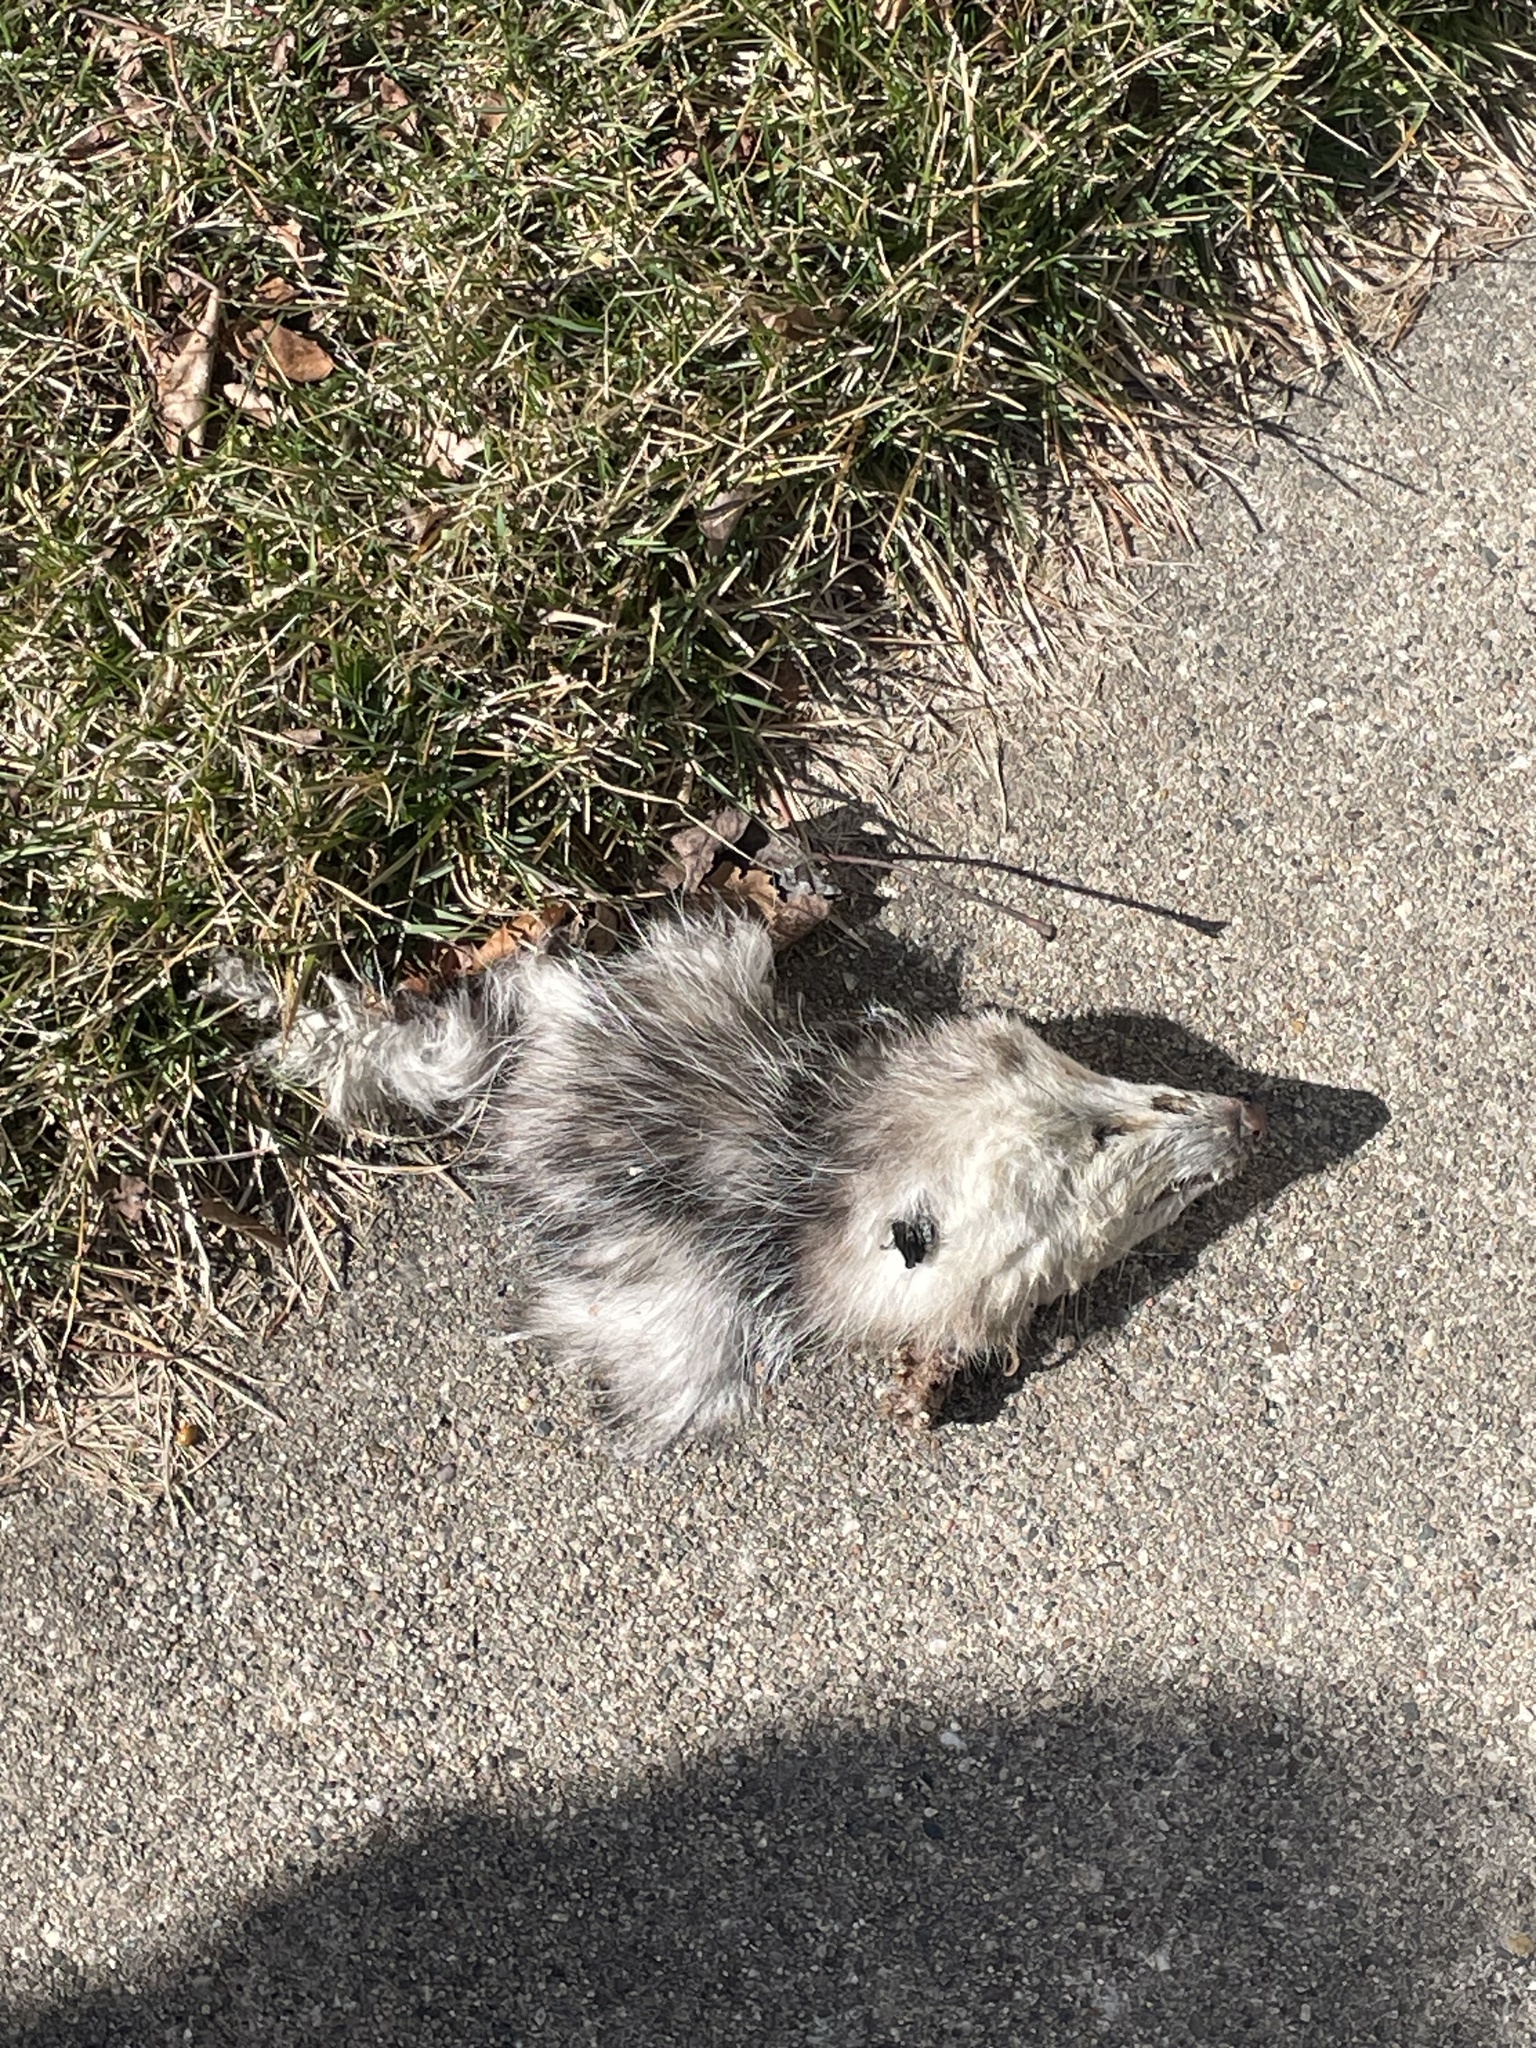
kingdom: Animalia
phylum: Chordata
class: Mammalia
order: Didelphimorphia
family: Didelphidae
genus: Didelphis
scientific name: Didelphis virginiana
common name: Virginia opossum
